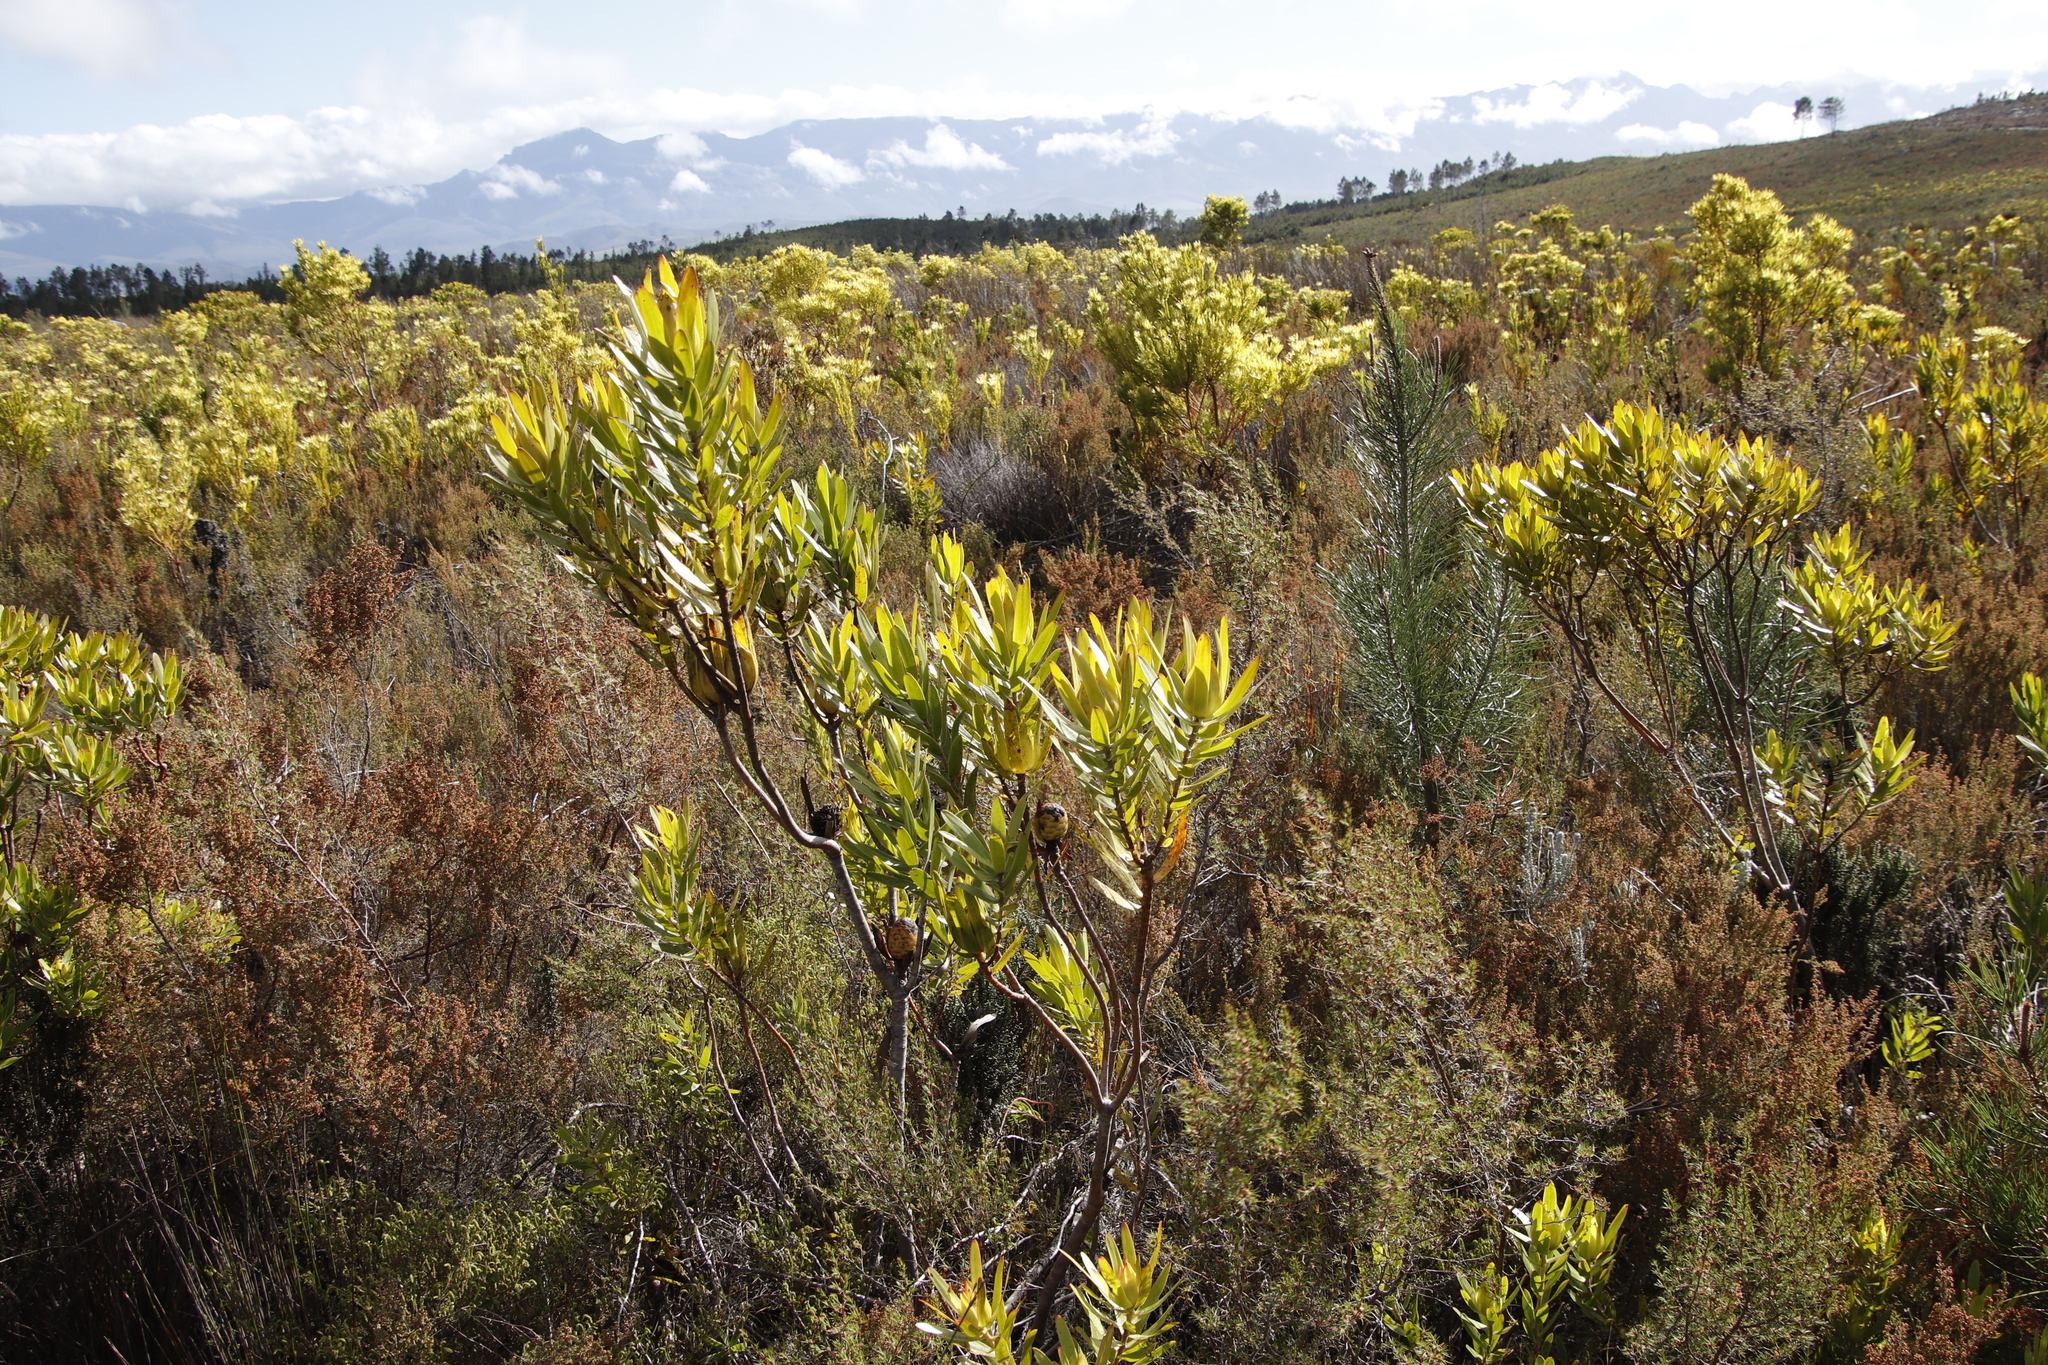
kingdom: Plantae
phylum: Tracheophyta
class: Magnoliopsida
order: Proteales
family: Proteaceae
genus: Leucadendron
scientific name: Leucadendron laureolum
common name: Golden sunshinebush
